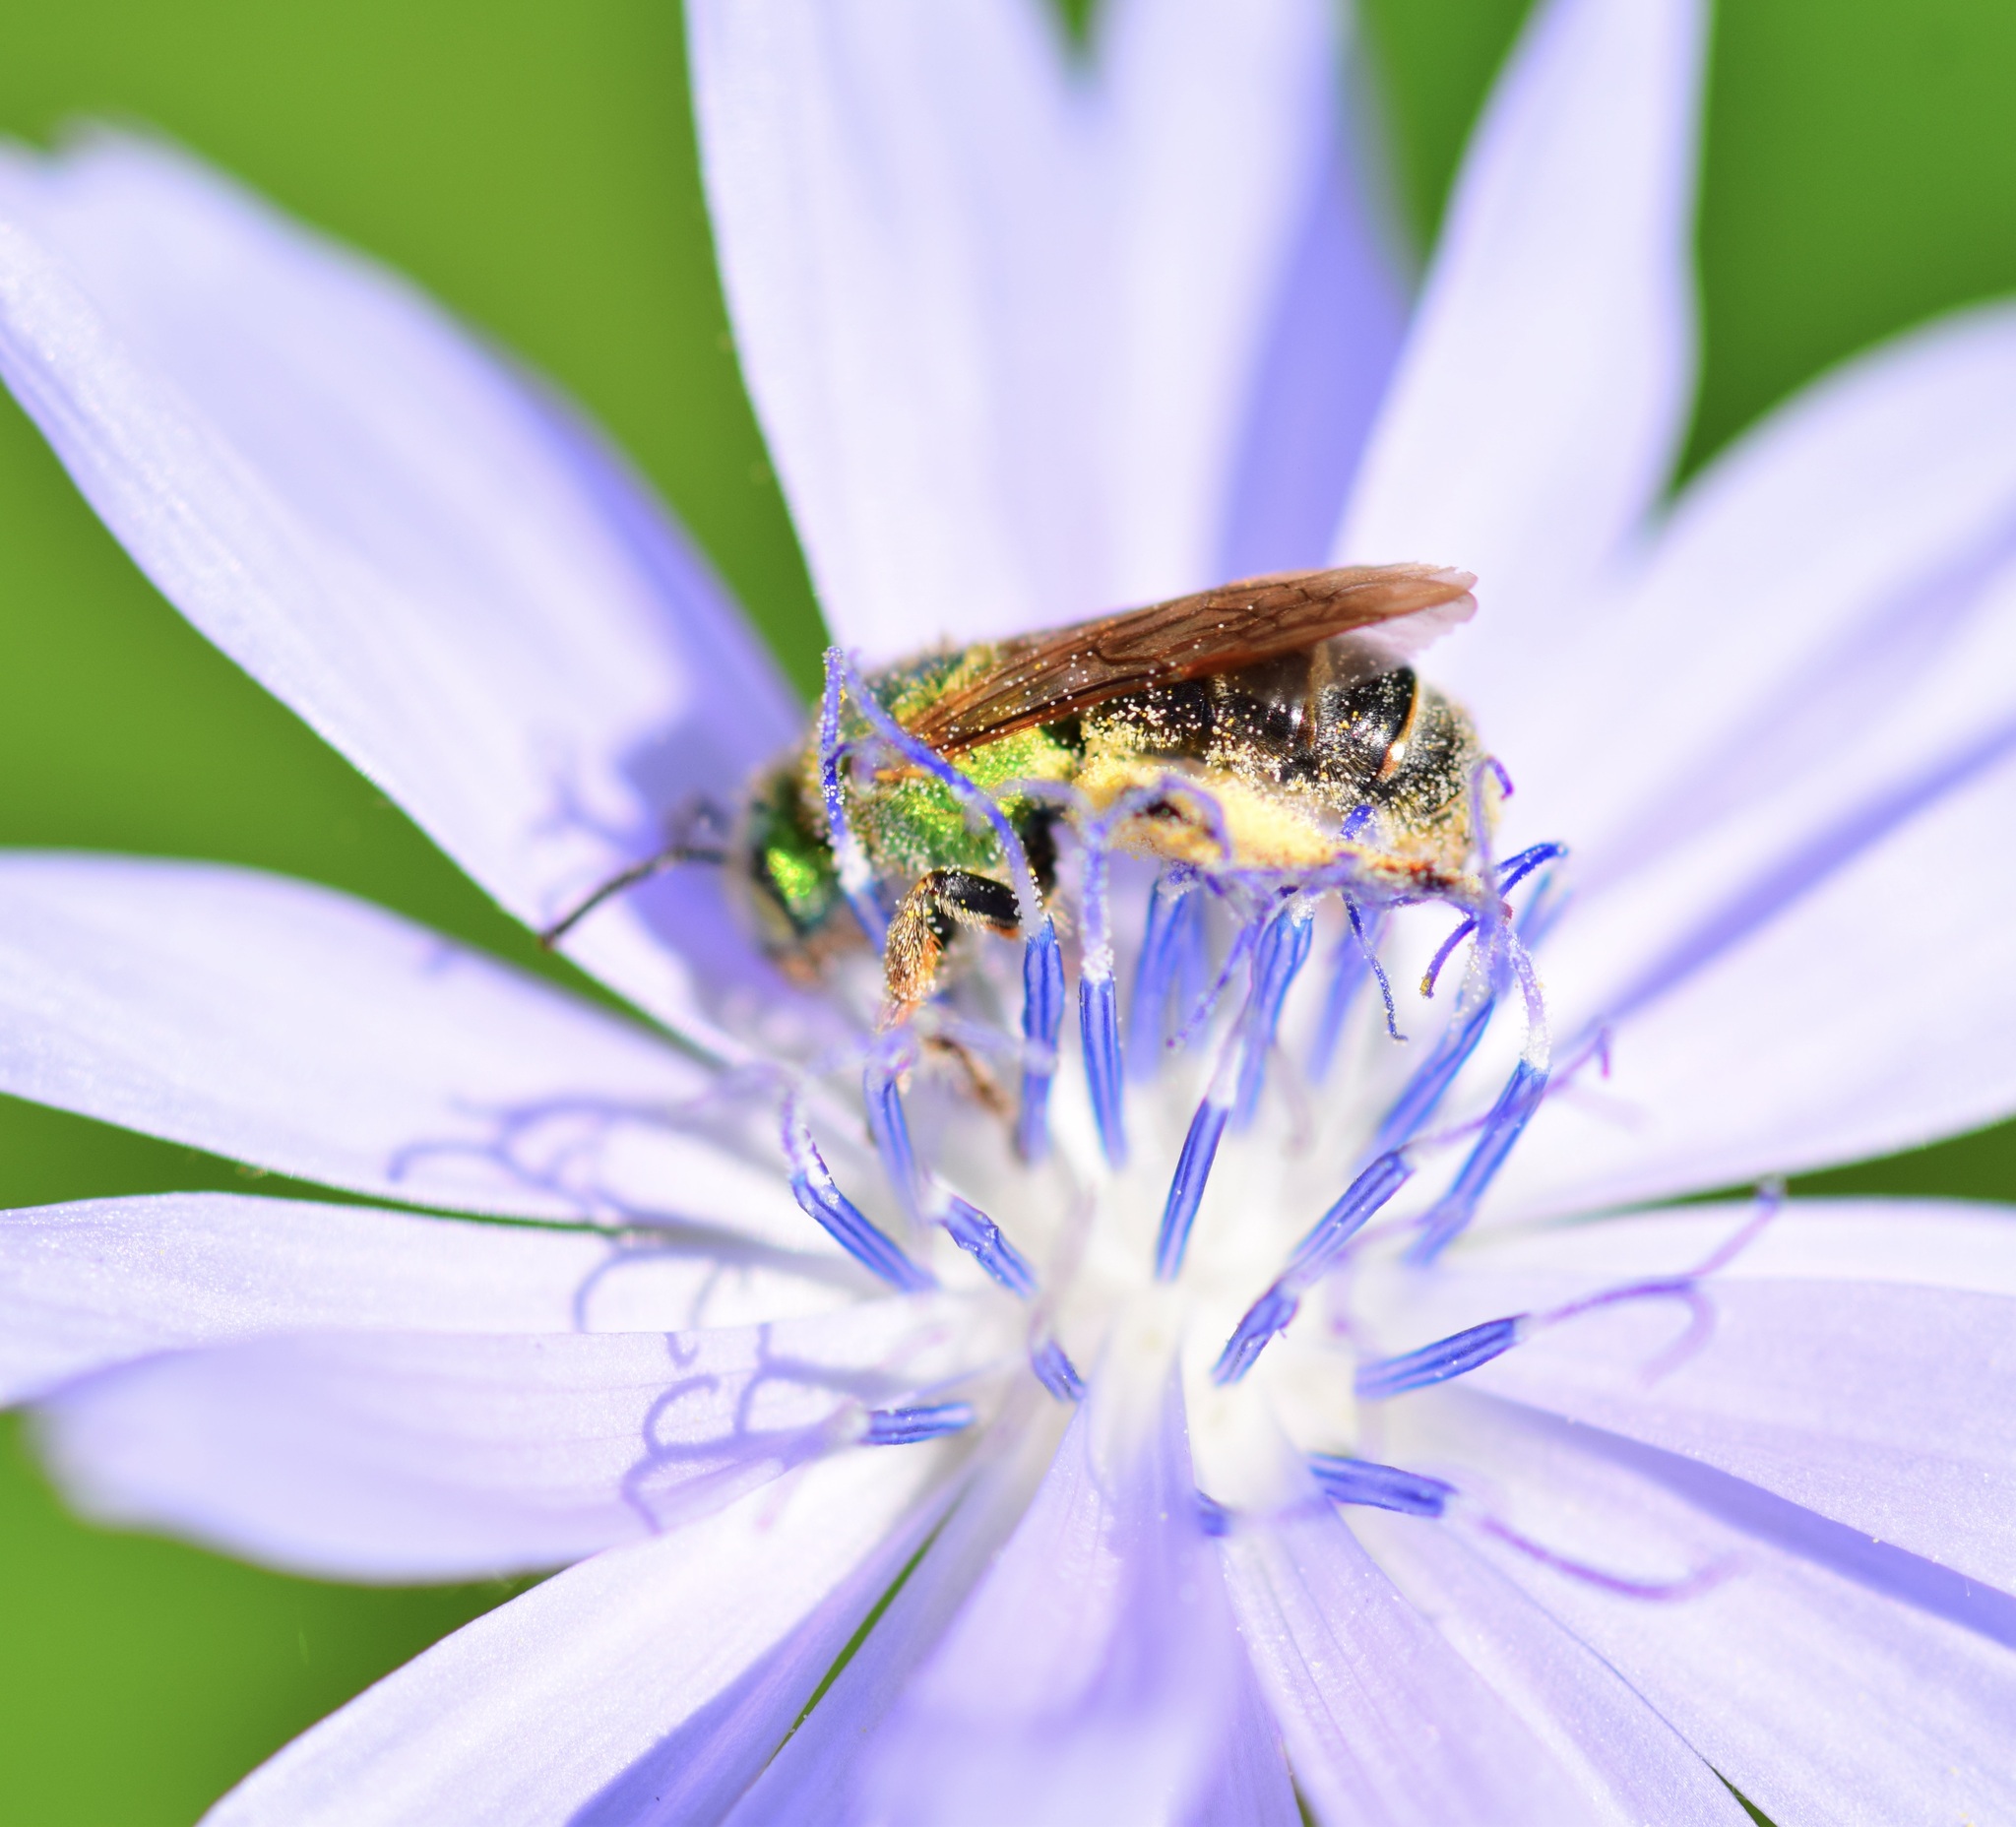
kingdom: Animalia
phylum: Arthropoda
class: Insecta
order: Hymenoptera
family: Halictidae
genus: Agapostemon
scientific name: Agapostemon virescens
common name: Bicolored striped sweat bee
